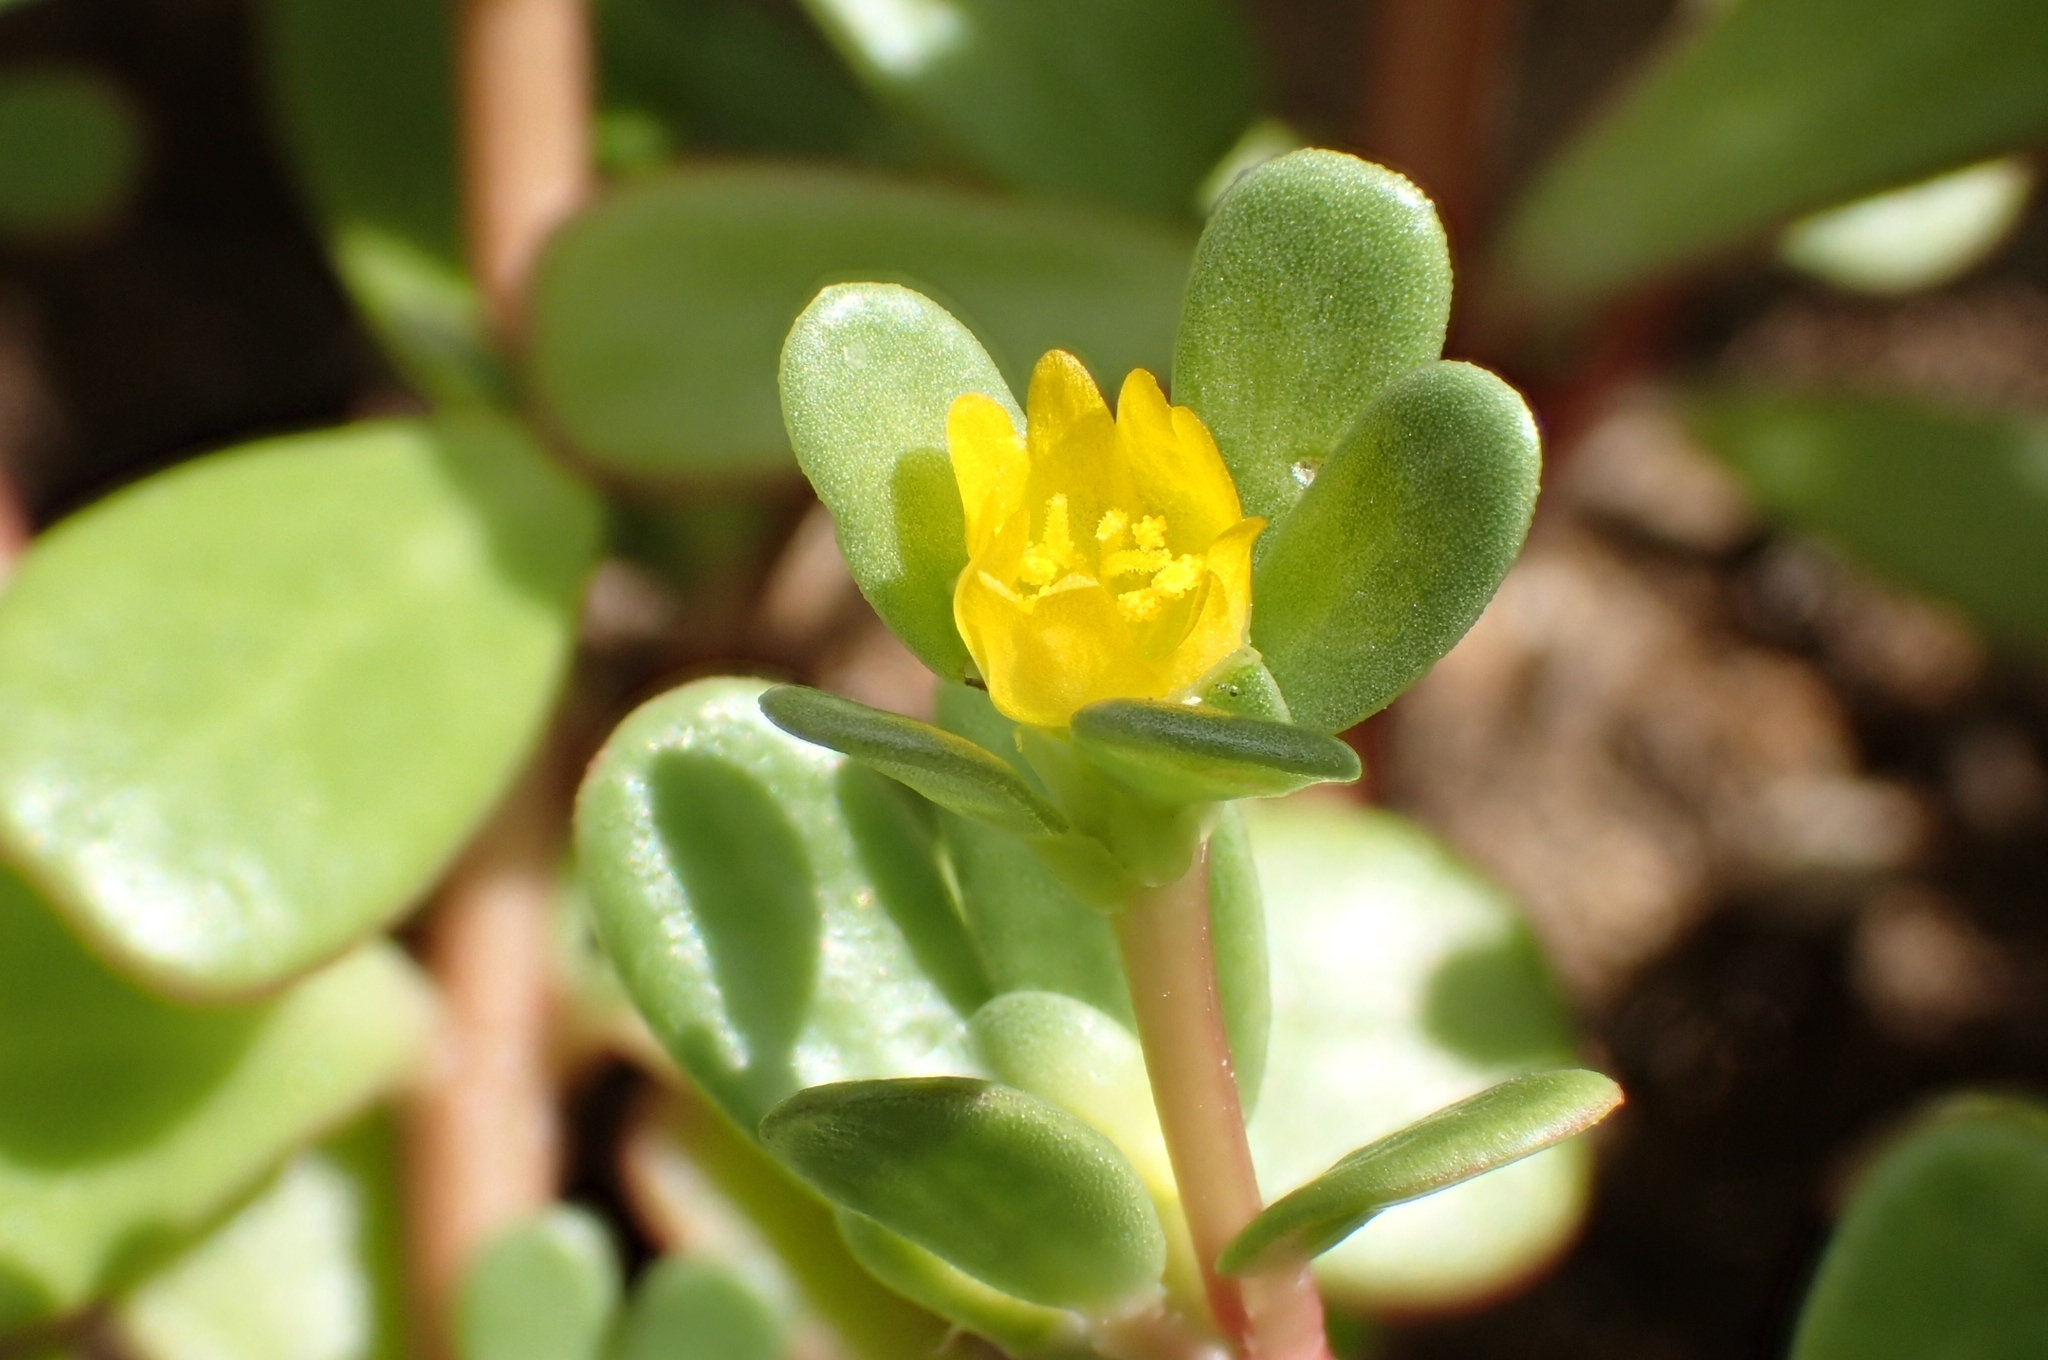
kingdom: Plantae
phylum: Tracheophyta
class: Magnoliopsida
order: Caryophyllales
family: Portulacaceae
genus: Portulaca
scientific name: Portulaca oleracea
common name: Common purslane
